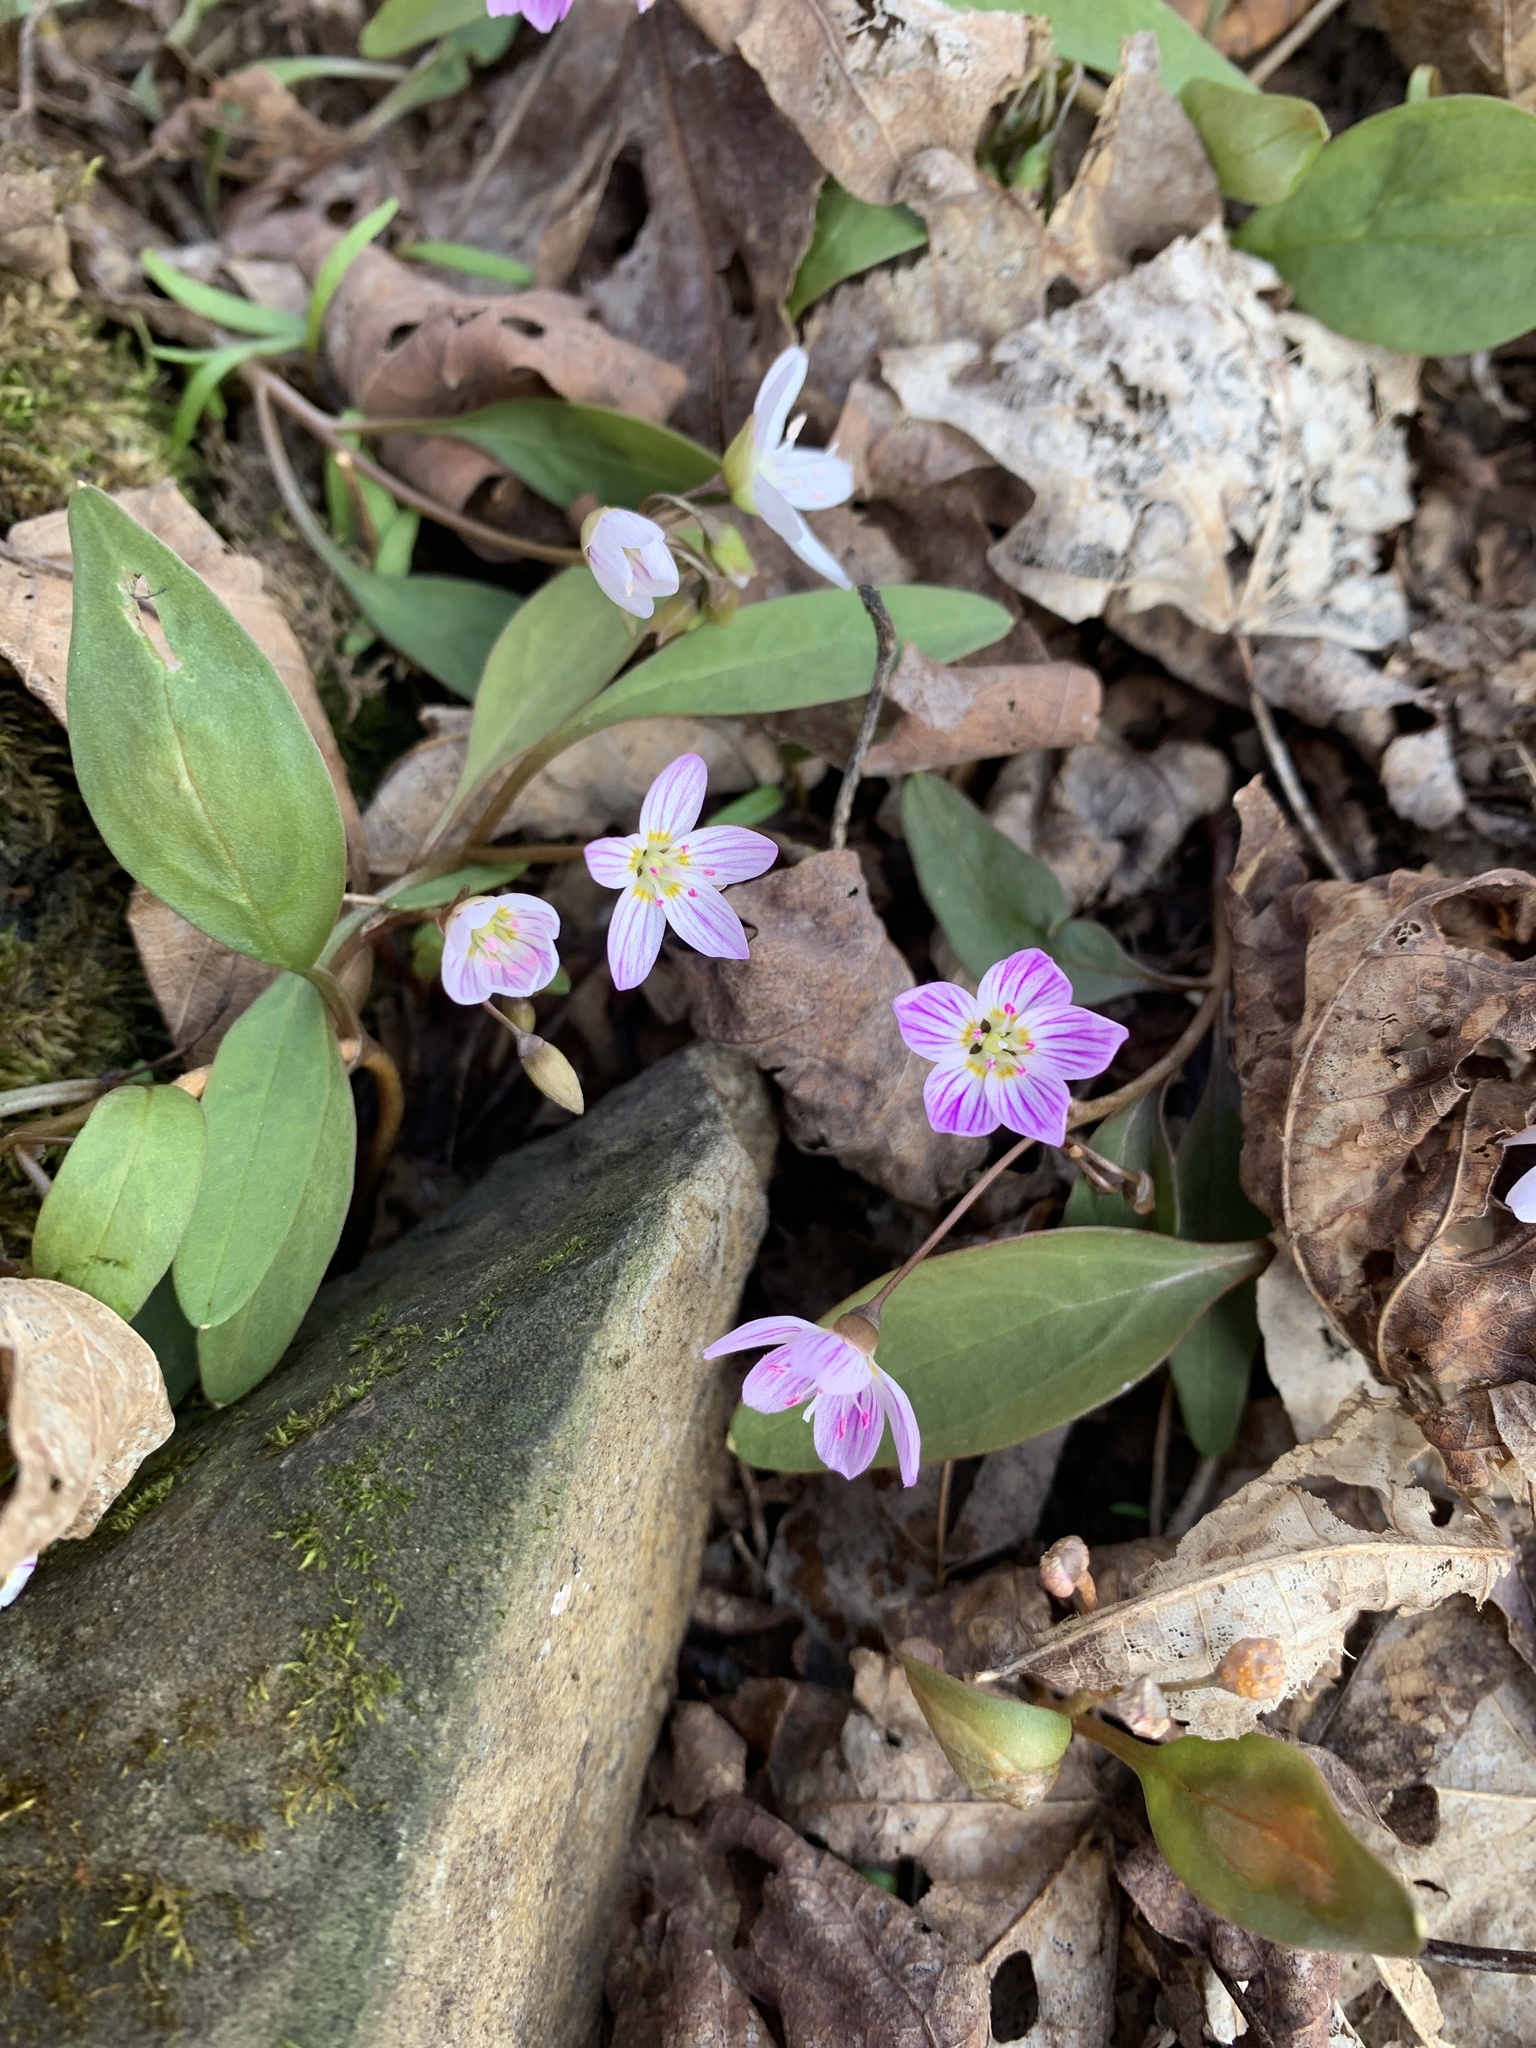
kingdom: Plantae
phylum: Tracheophyta
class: Magnoliopsida
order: Caryophyllales
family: Montiaceae
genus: Claytonia
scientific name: Claytonia caroliniana
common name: Carolina spring beauty
